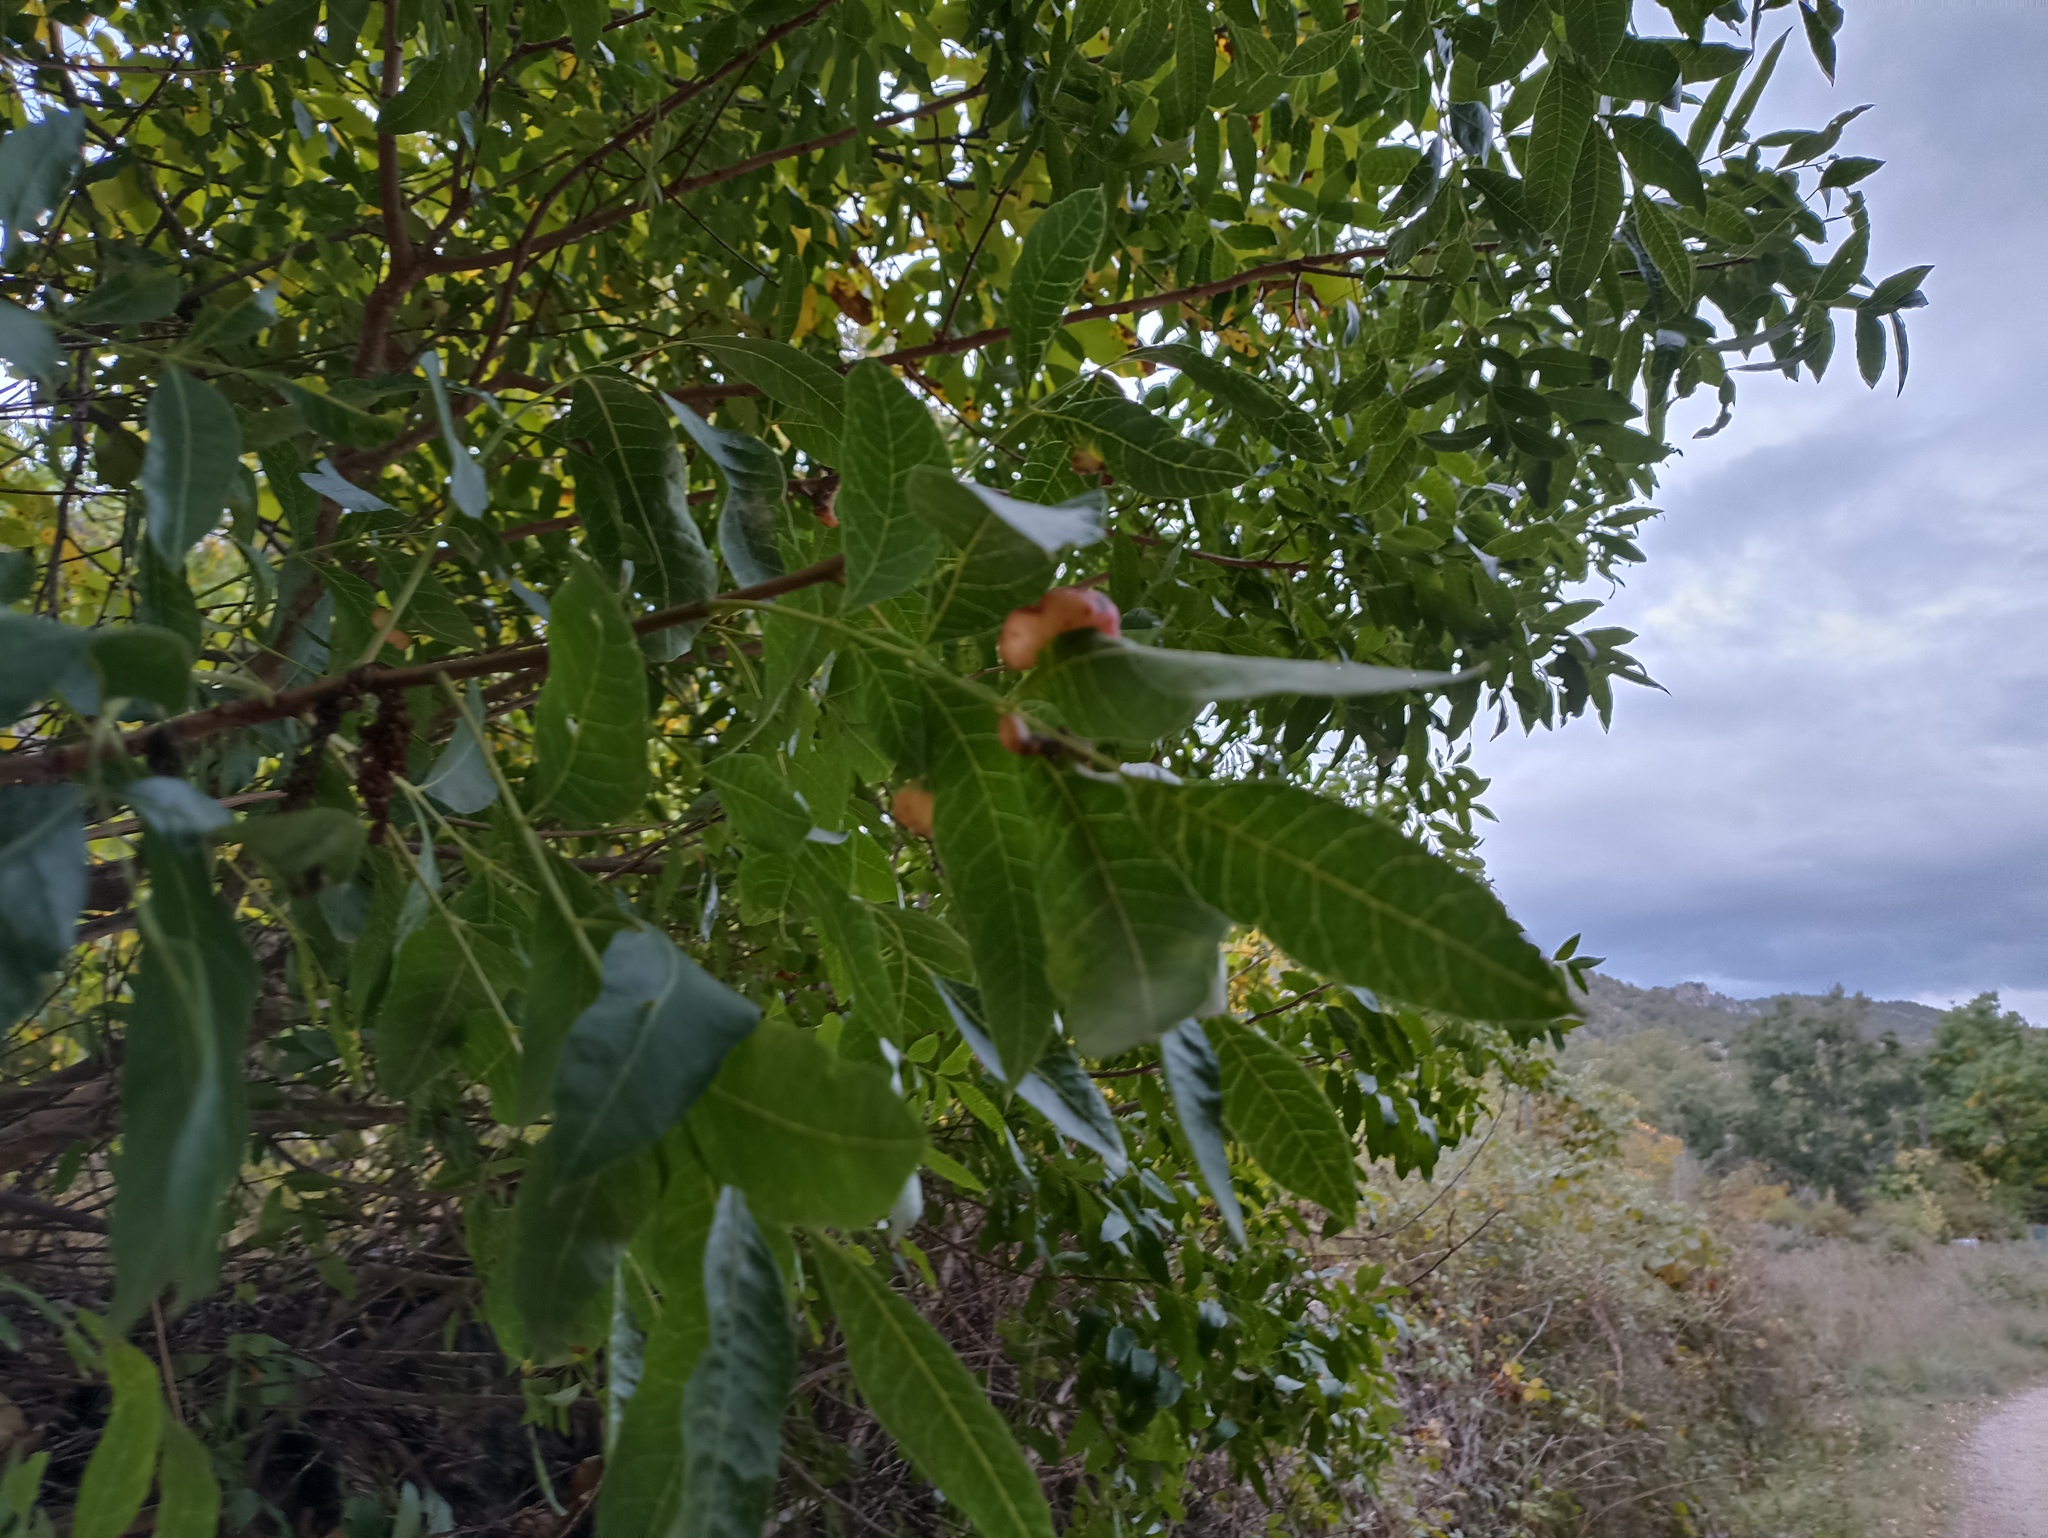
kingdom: Animalia
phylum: Arthropoda
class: Insecta
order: Hemiptera
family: Aphididae
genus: Forda
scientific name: Forda formicaria
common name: Root aphid
